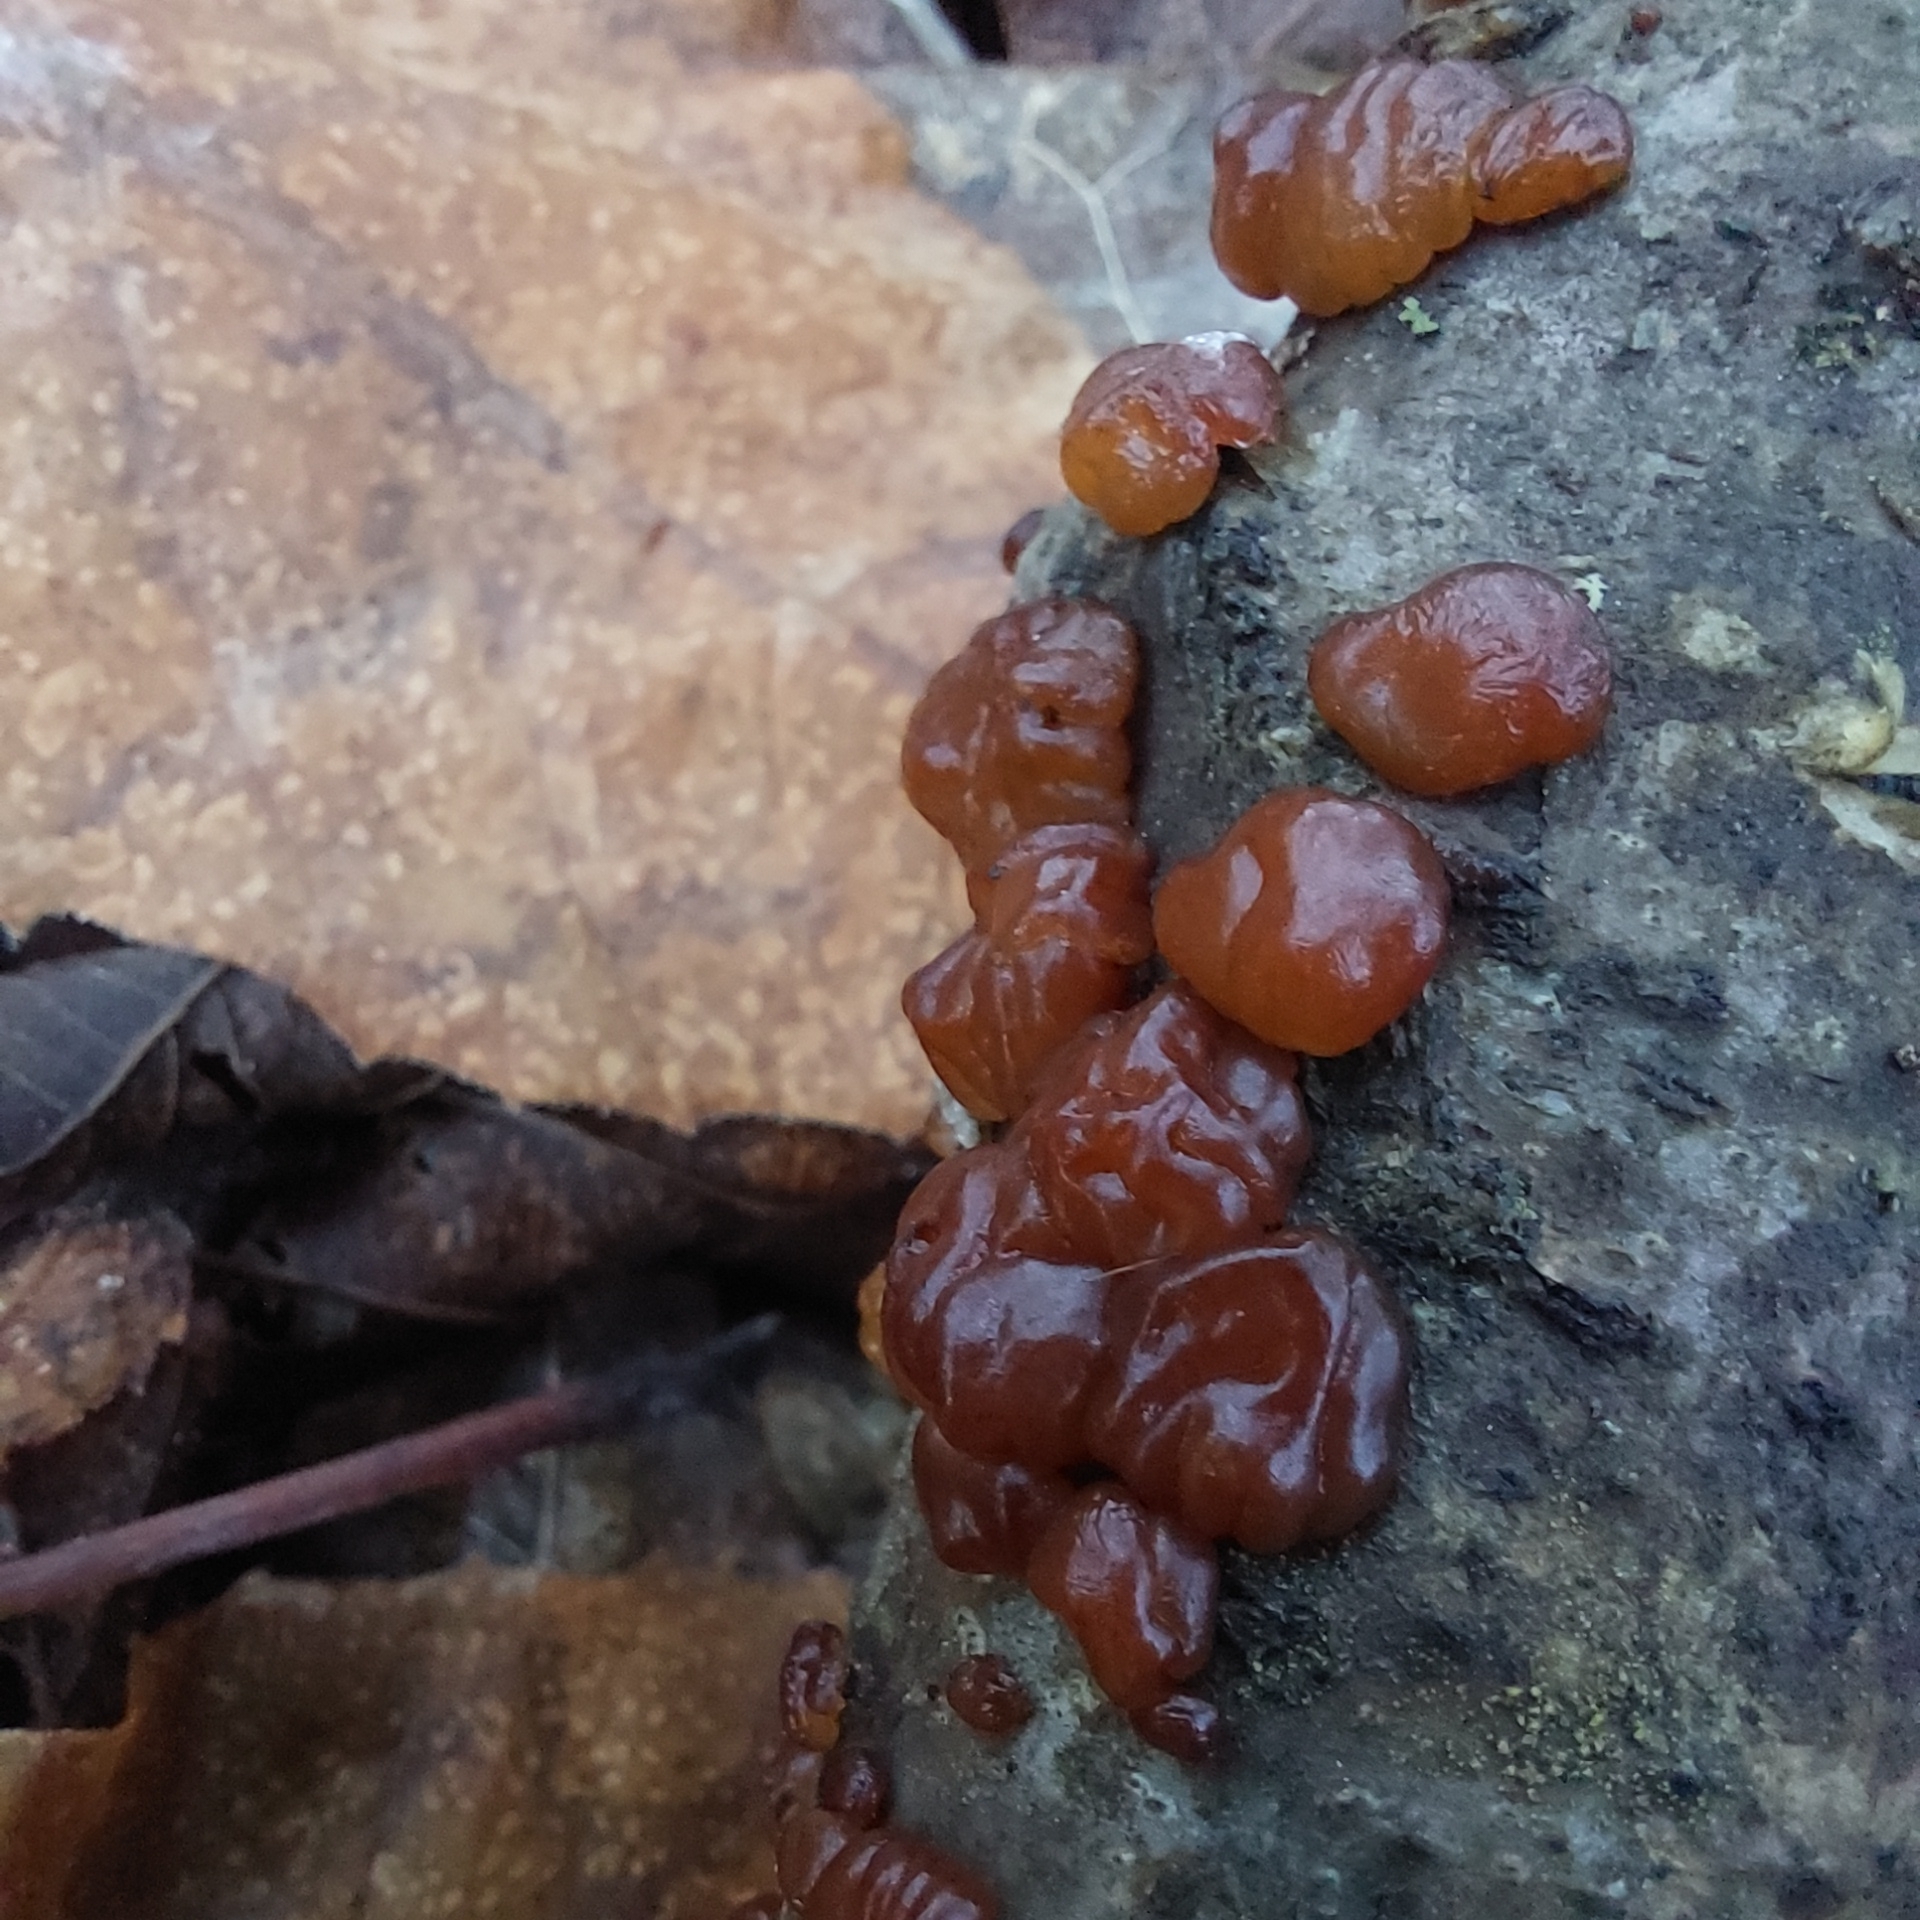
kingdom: Fungi
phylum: Basidiomycota
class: Agaricomycetes
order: Auriculariales
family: Auriculariaceae
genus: Exidia
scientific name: Exidia repanda
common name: Birch jelly
